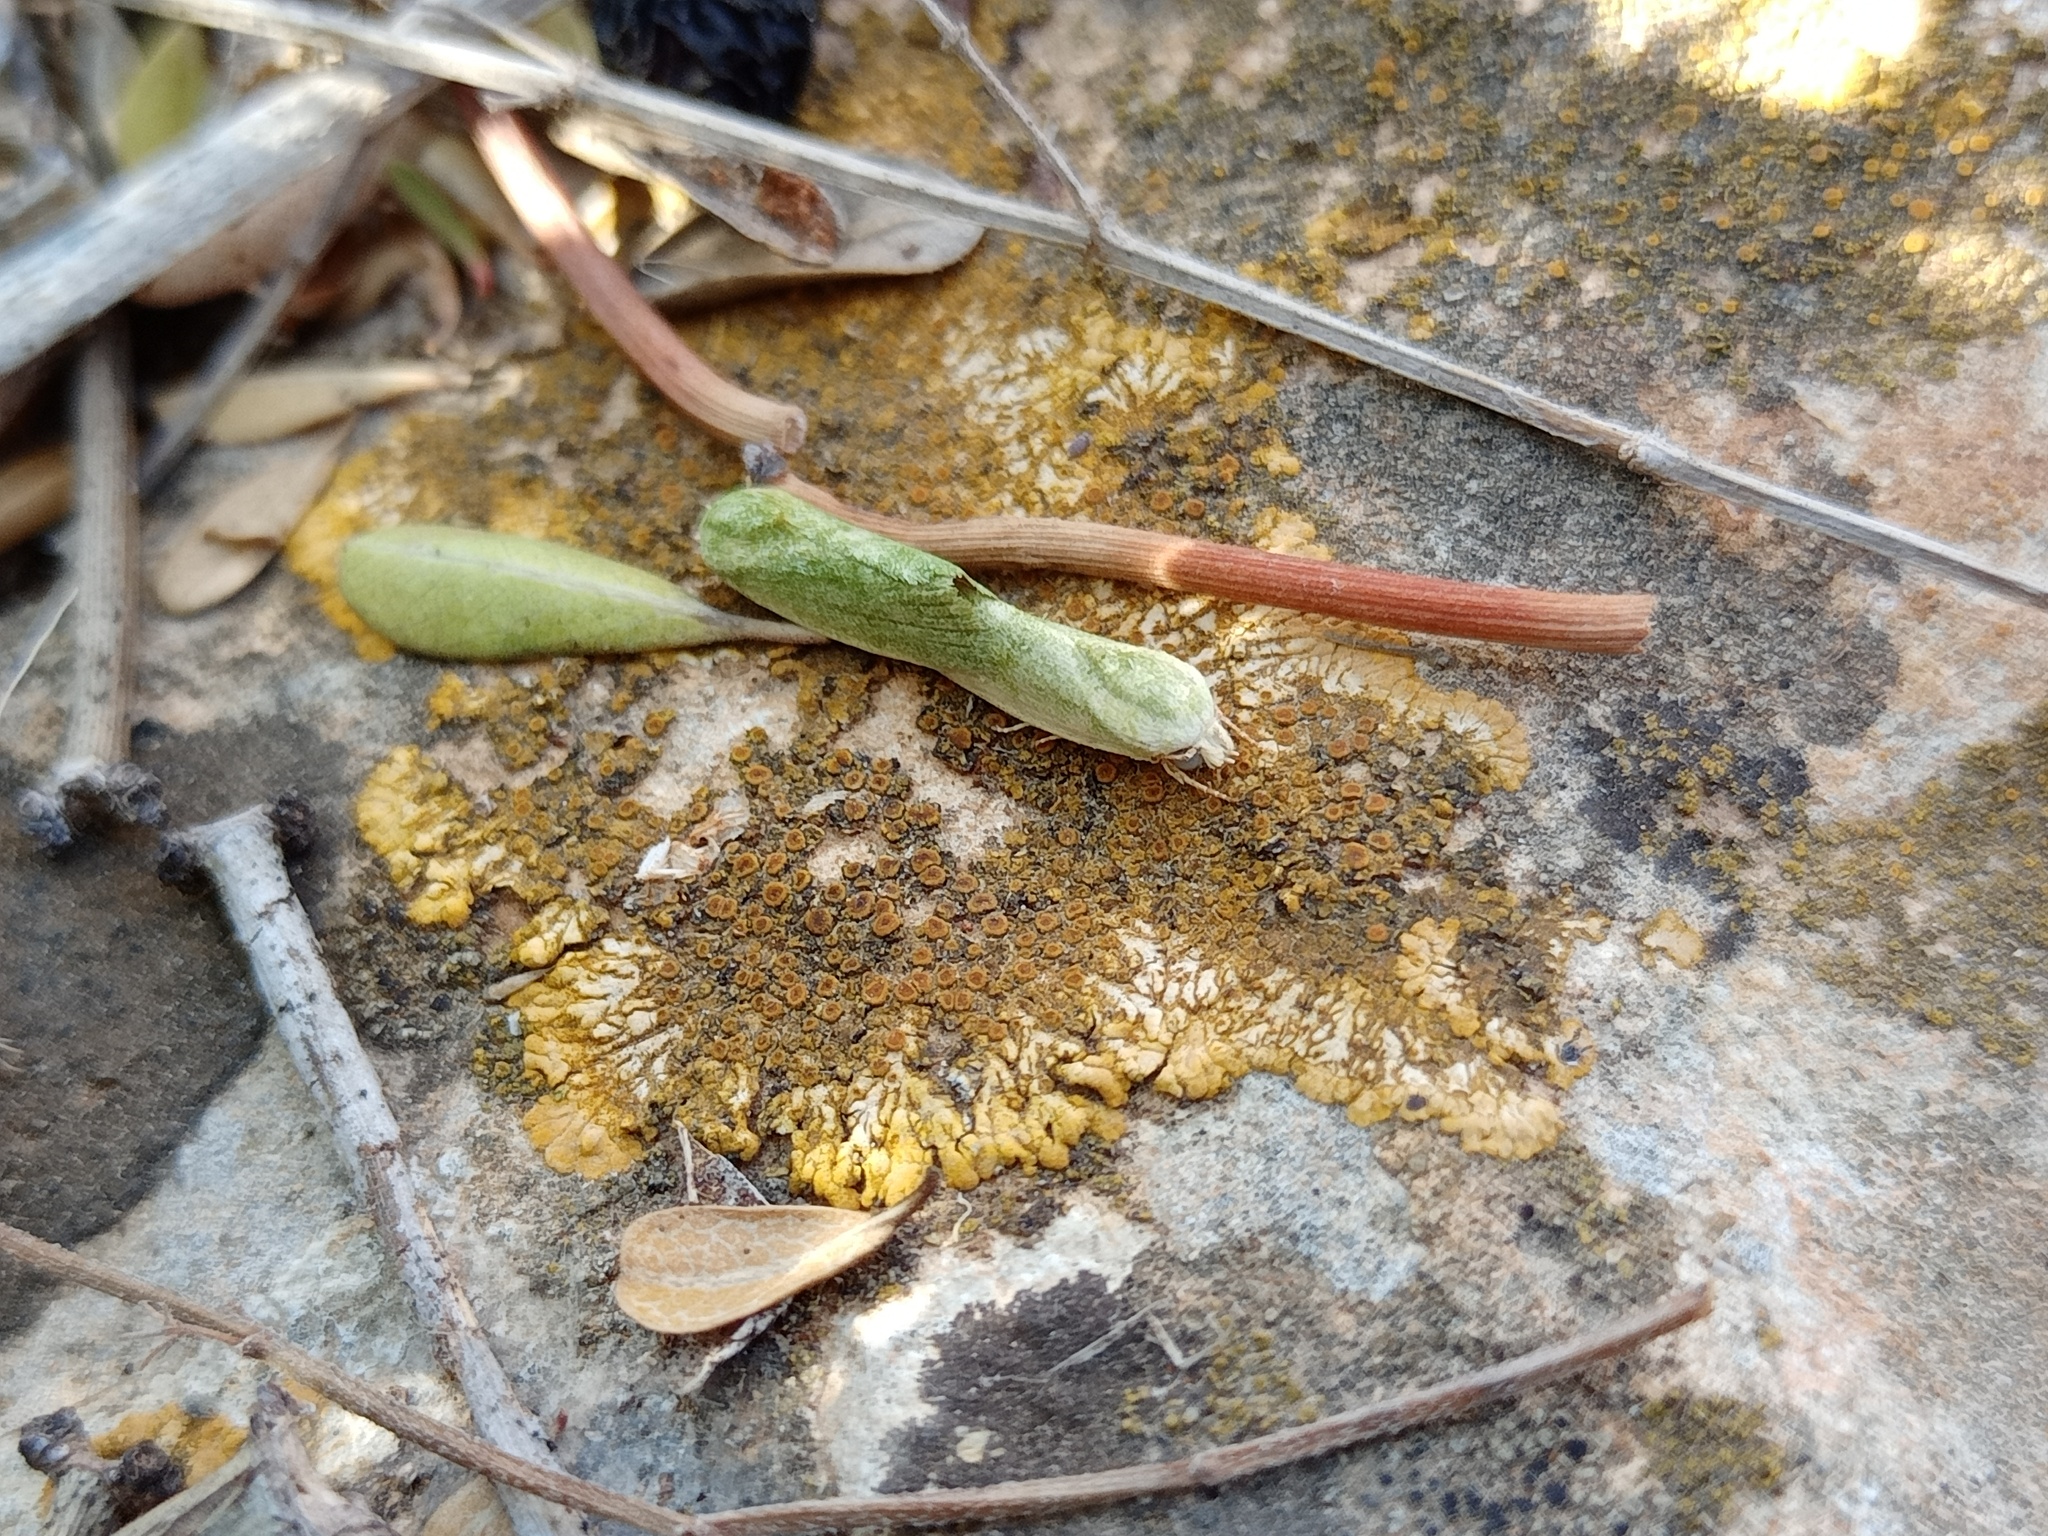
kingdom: Animalia
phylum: Arthropoda
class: Insecta
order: Lepidoptera
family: Nolidae
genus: Earias
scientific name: Earias insulana
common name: Egyptian bollworm
